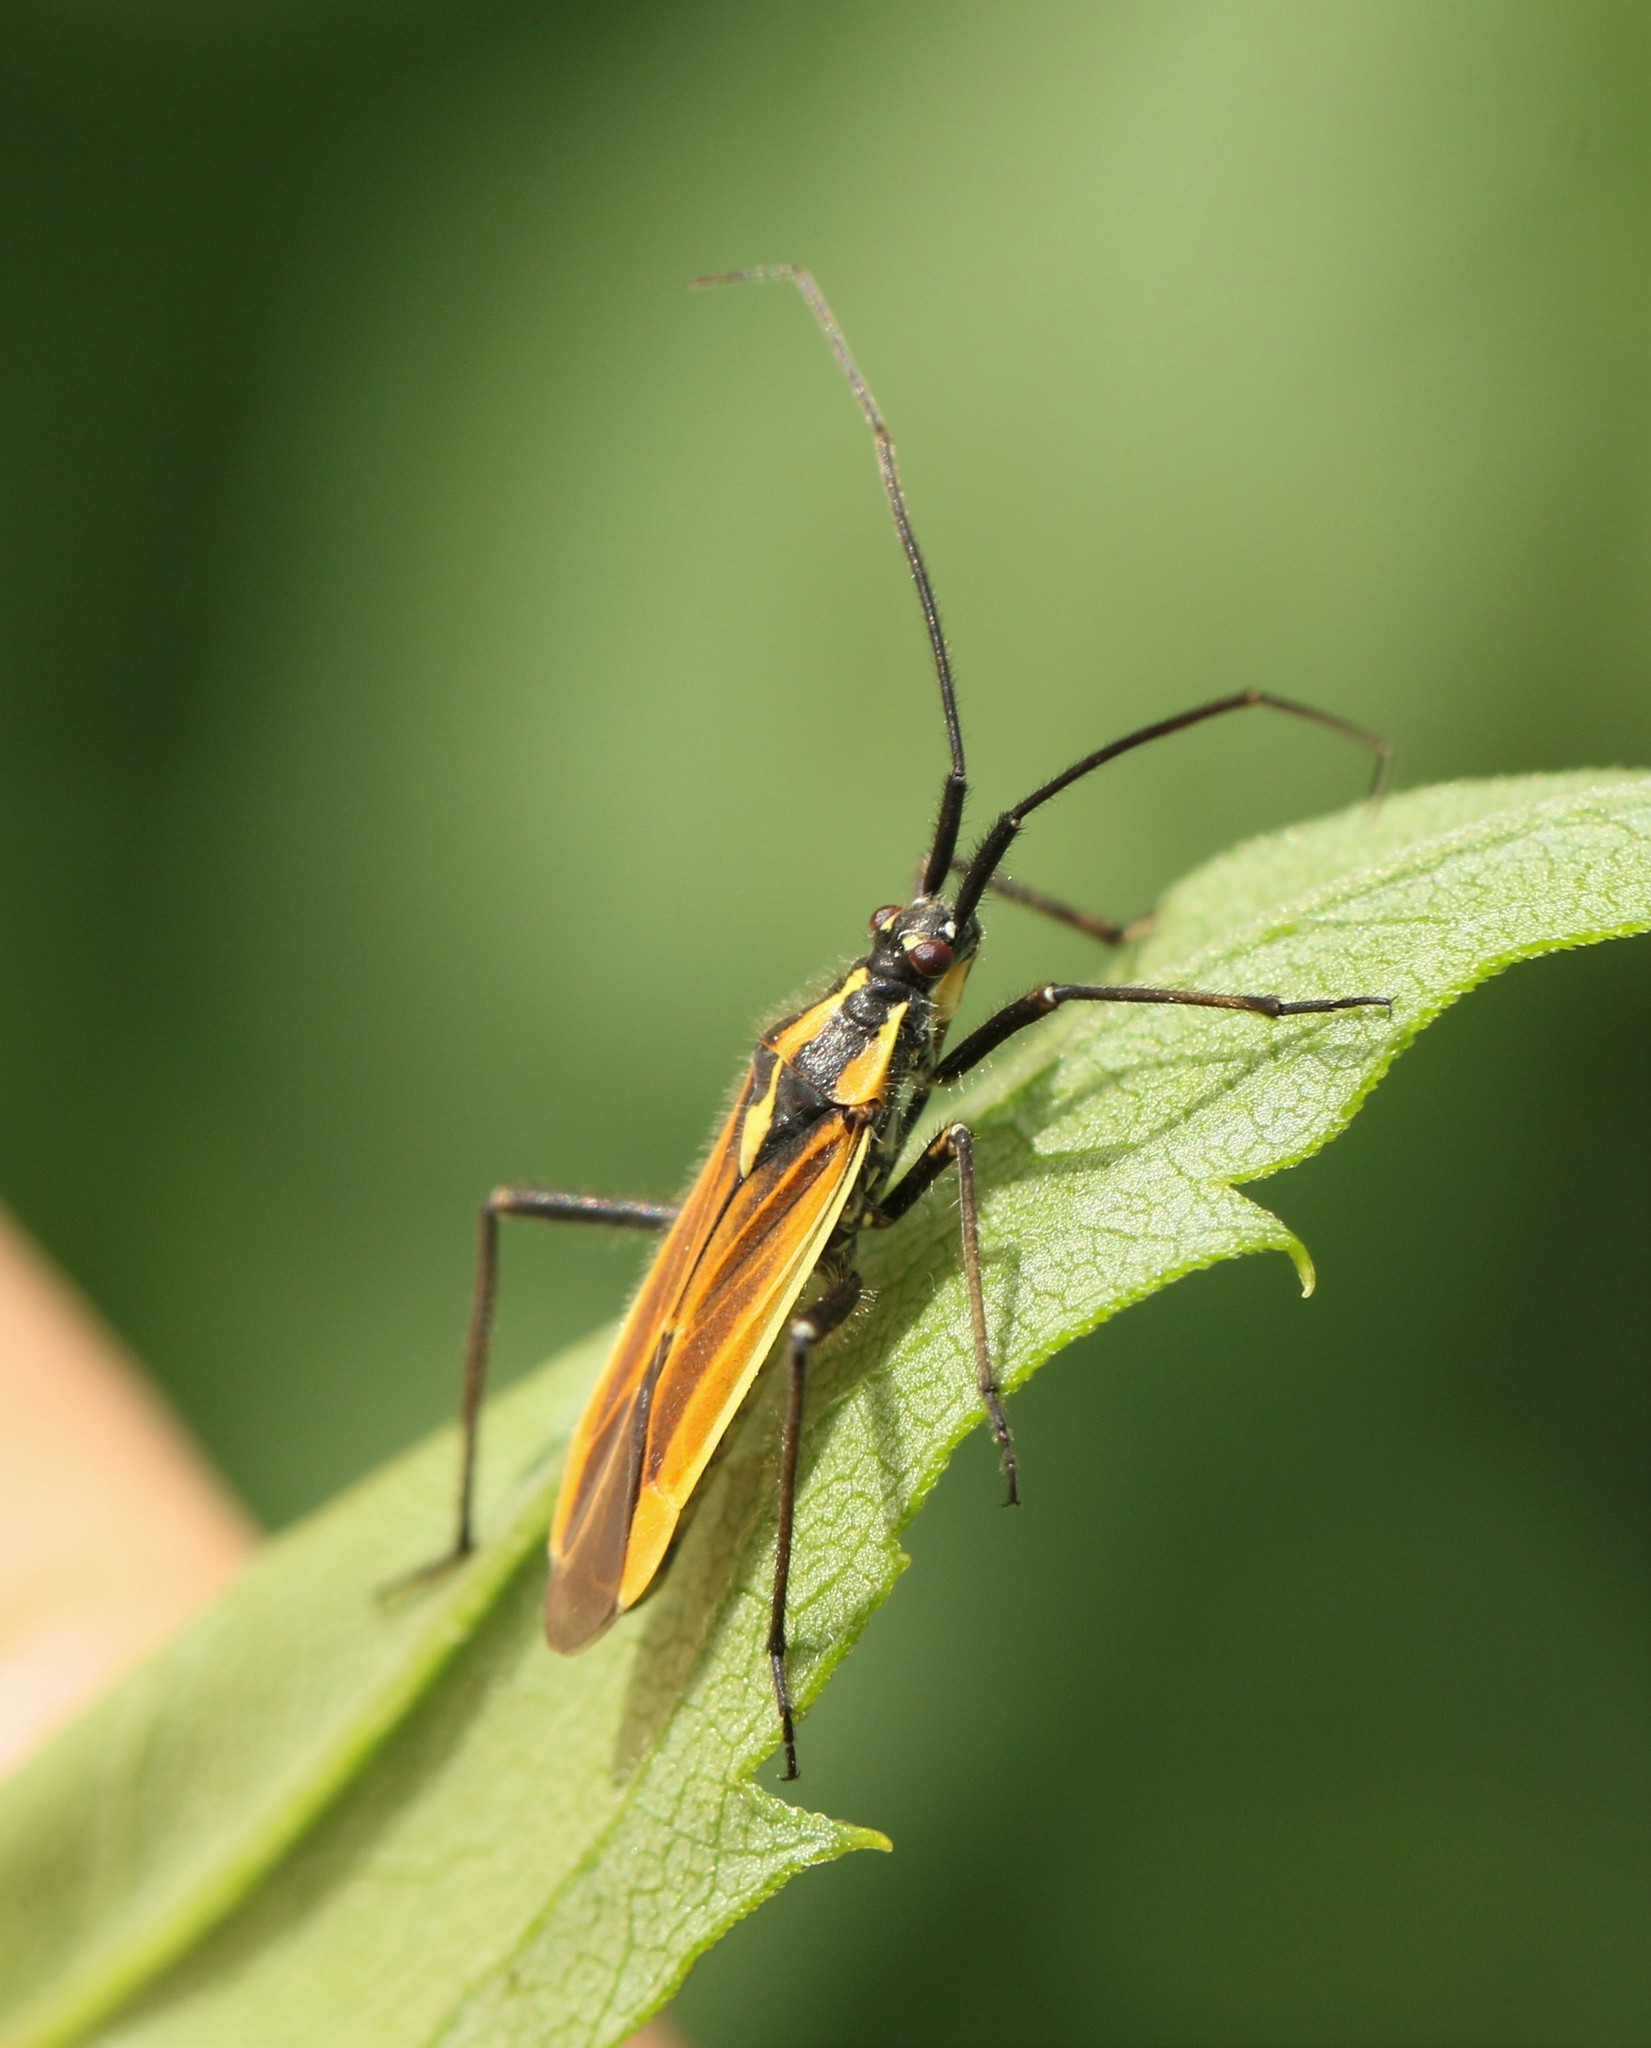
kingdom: Animalia
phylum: Arthropoda
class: Insecta
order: Hemiptera
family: Miridae
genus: Leptopterna
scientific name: Leptopterna dolabrata
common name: Meadow plant bug
